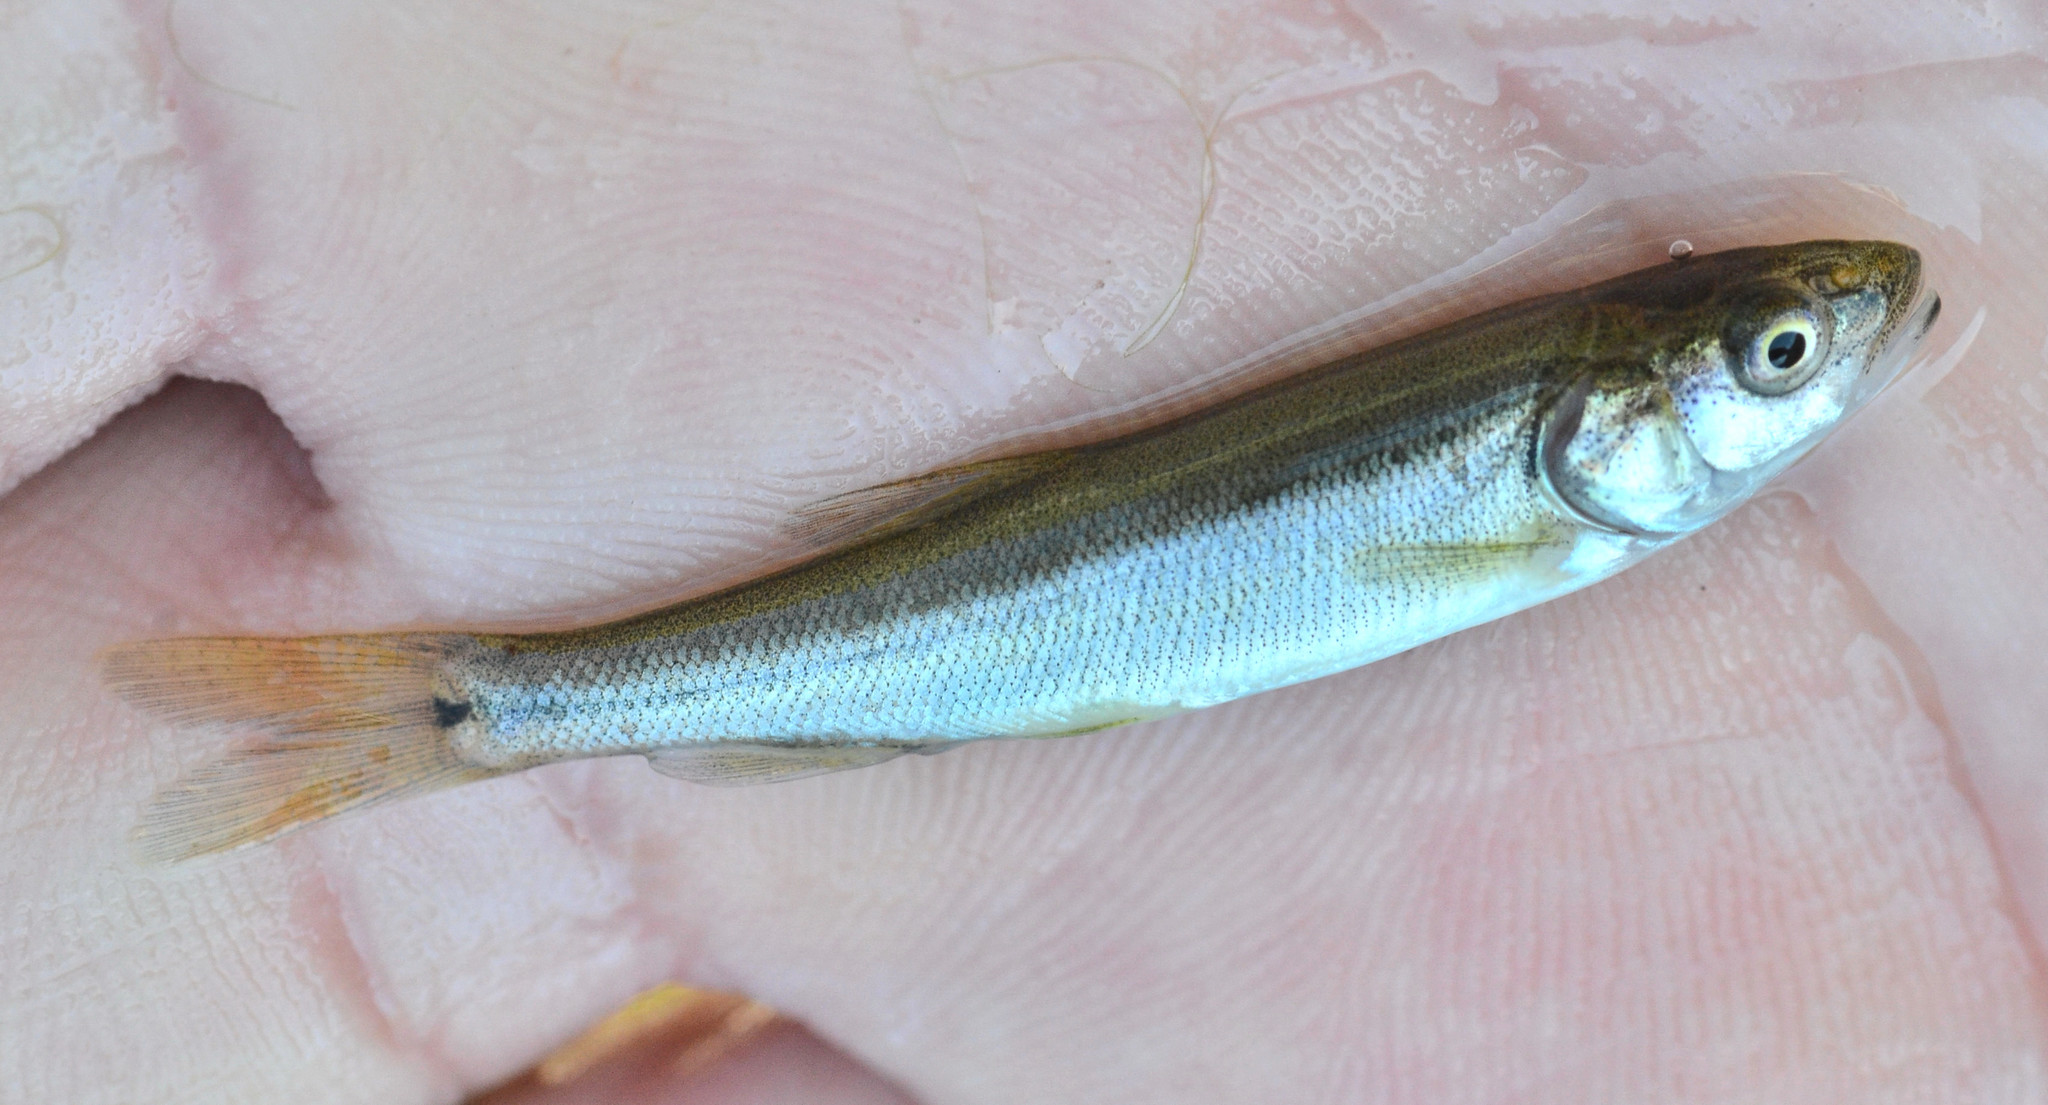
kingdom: Animalia
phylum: Chordata
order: Cypriniformes
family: Cyprinidae
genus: Mylopharodon
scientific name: Mylopharodon conocephalus
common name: Hardhead
